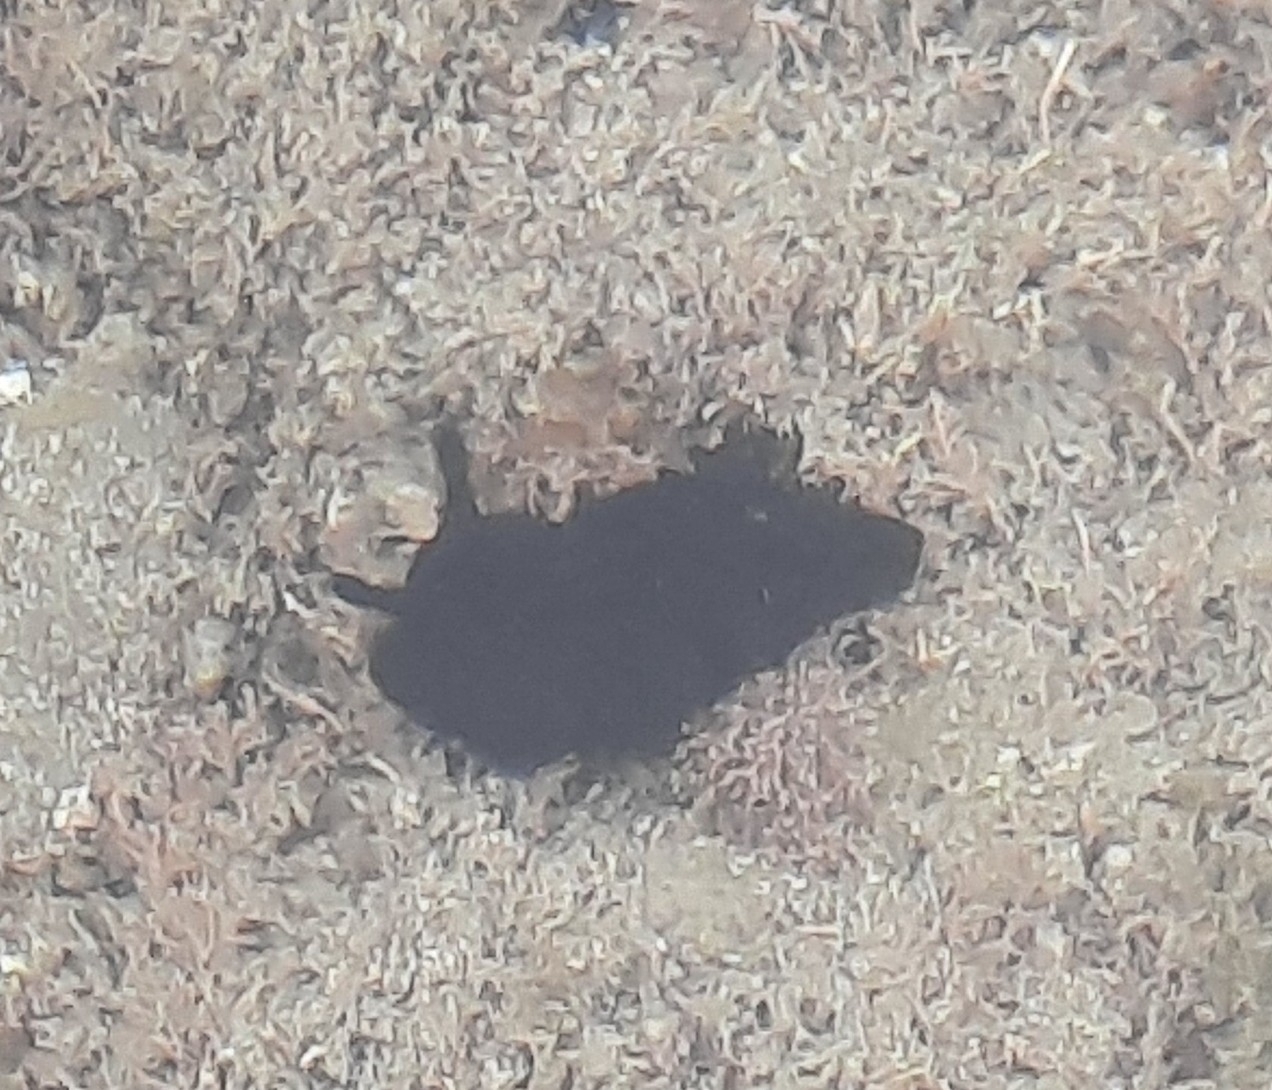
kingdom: Animalia
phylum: Mollusca
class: Gastropoda
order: Nudibranchia
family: Dendrodorididae
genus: Dendrodoris
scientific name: Dendrodoris nigra
